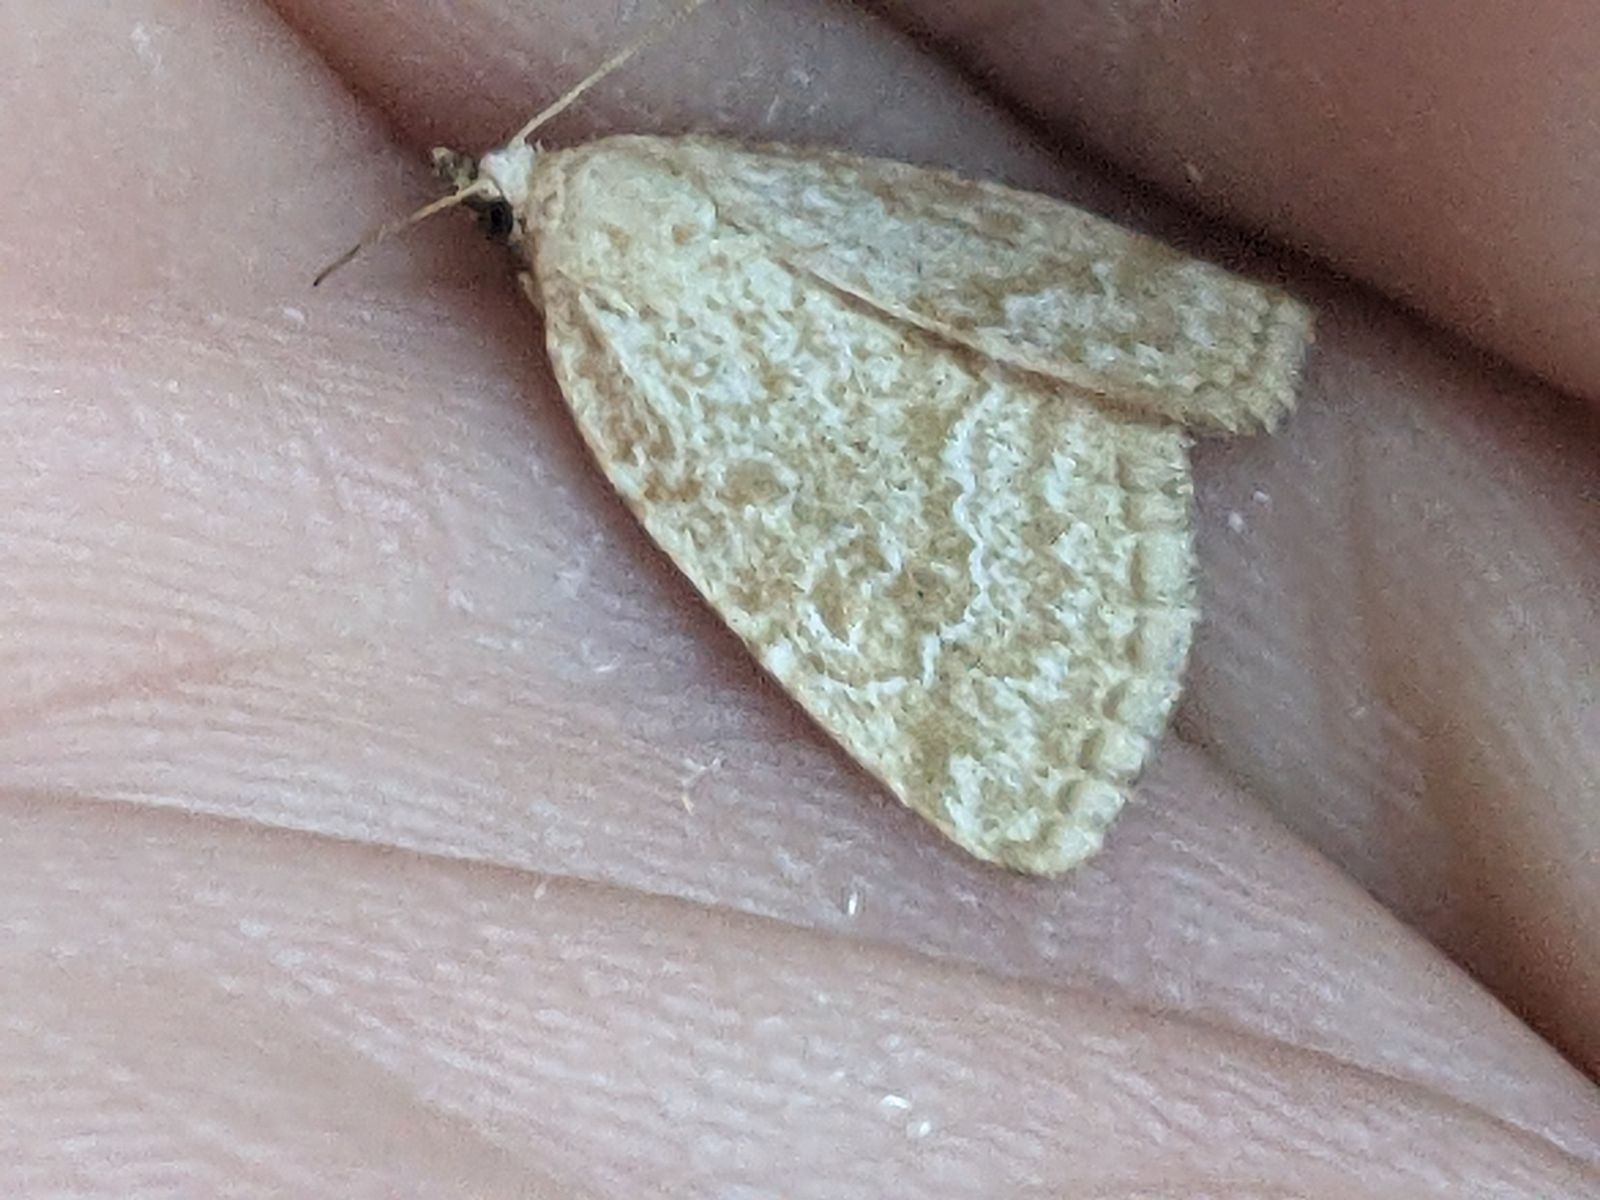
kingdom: Animalia
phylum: Arthropoda
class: Insecta
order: Lepidoptera
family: Noctuidae
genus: Protodeltote
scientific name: Protodeltote albidula
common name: Pale glyph
